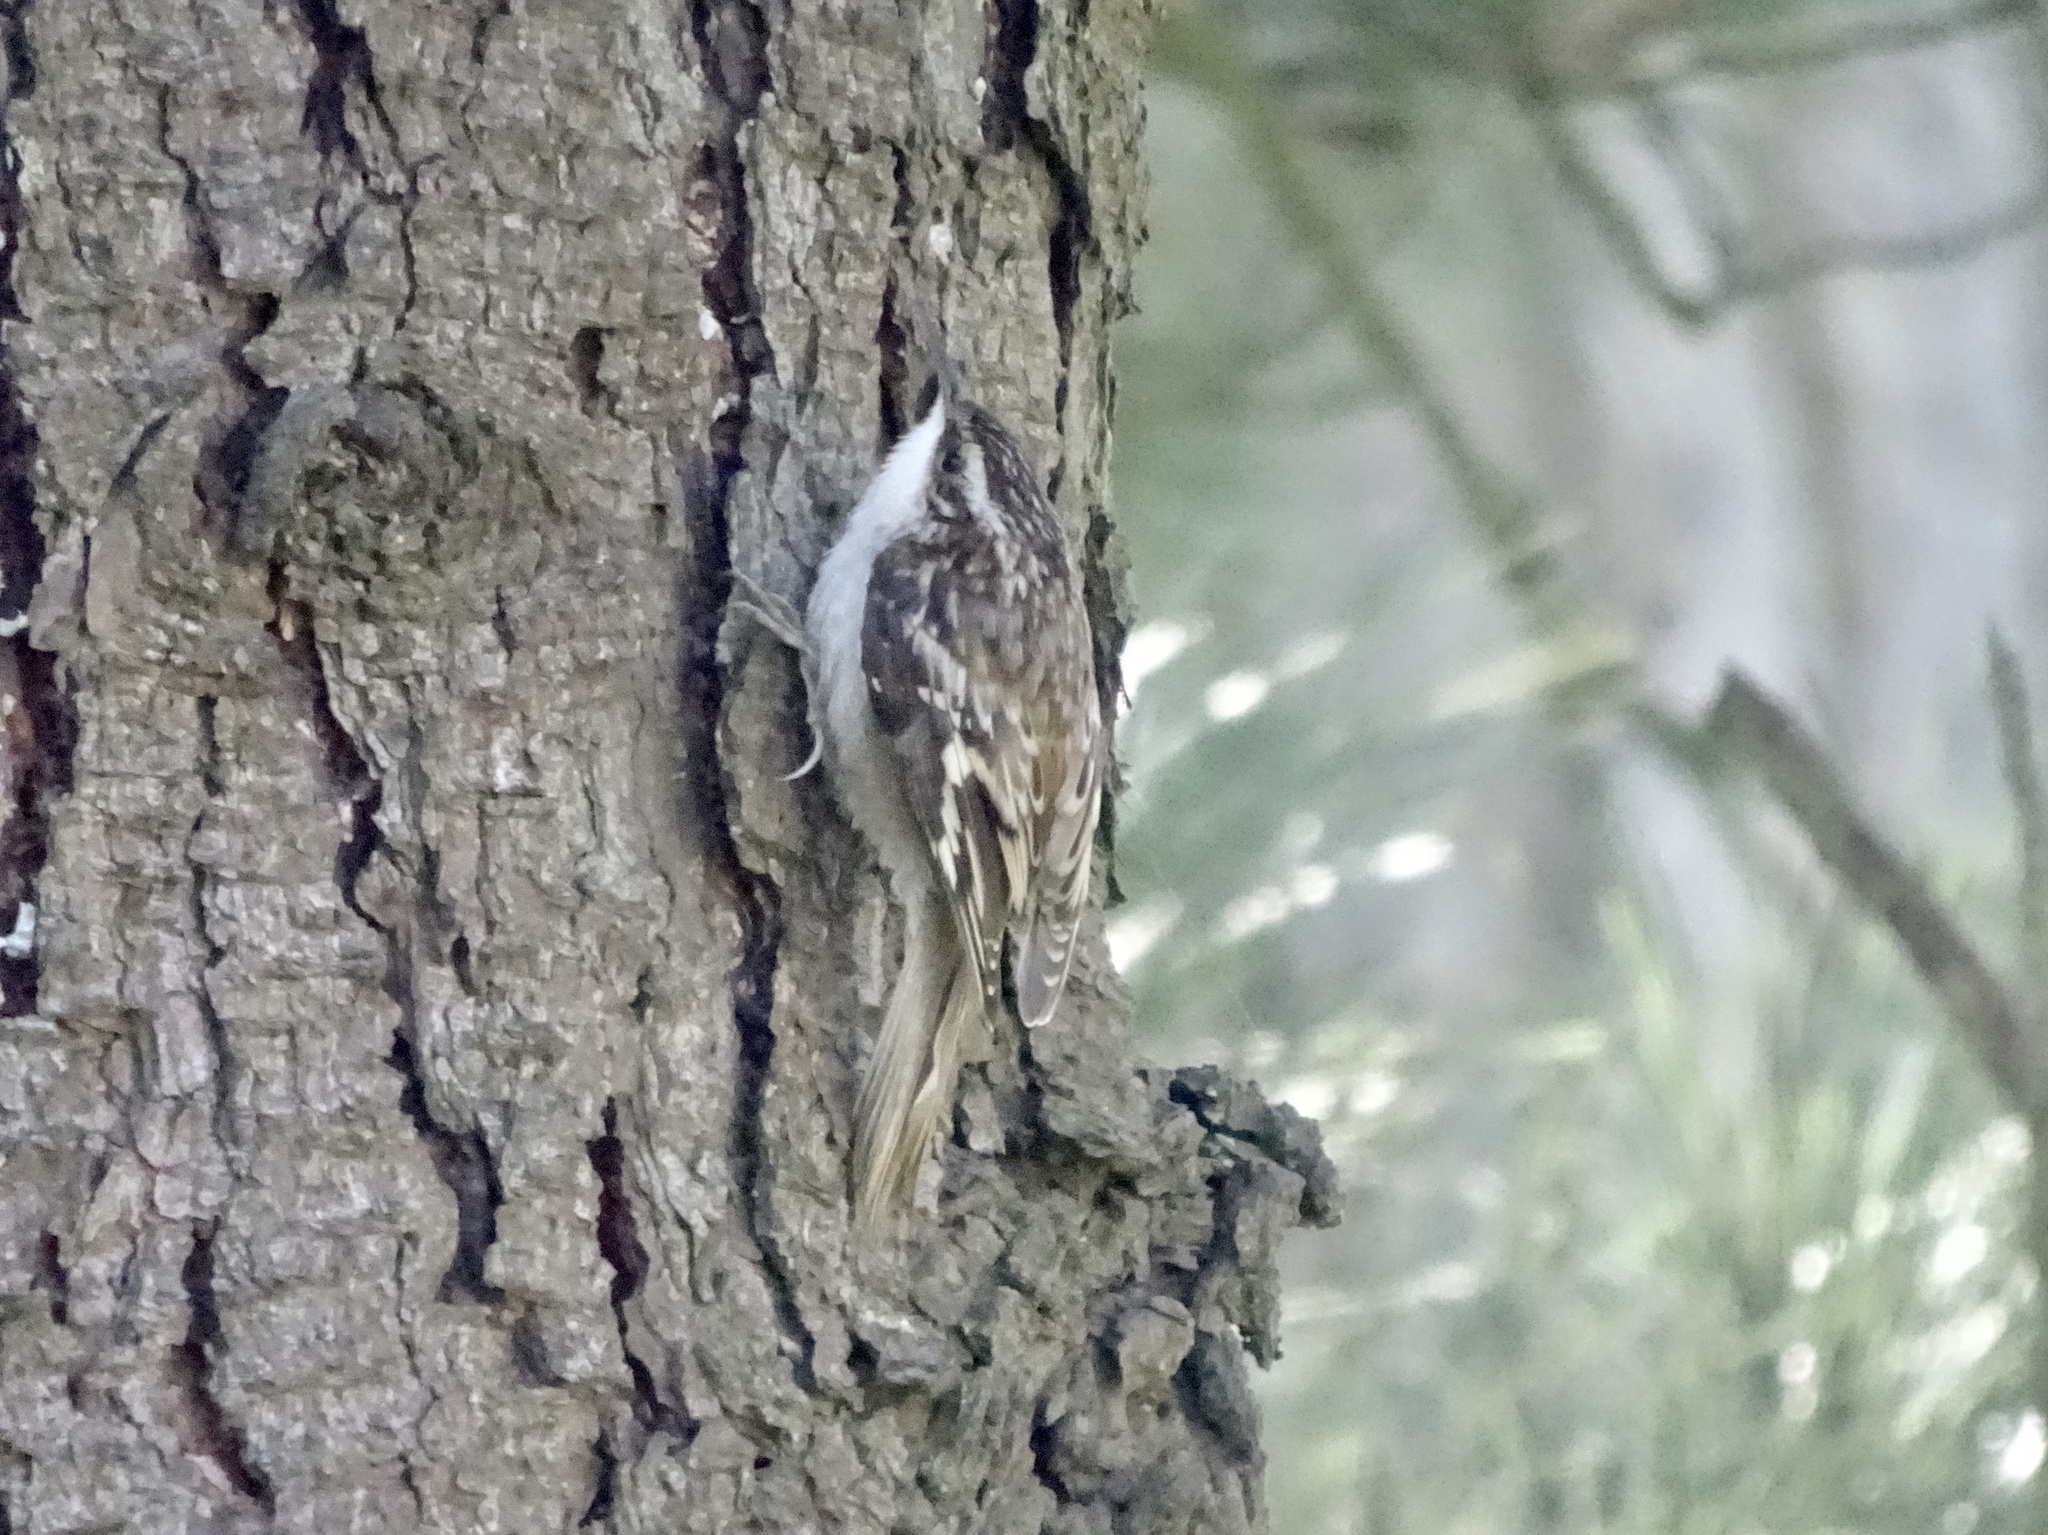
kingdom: Animalia
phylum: Chordata
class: Aves
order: Passeriformes
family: Certhiidae
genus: Certhia
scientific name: Certhia americana
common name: Brown creeper
